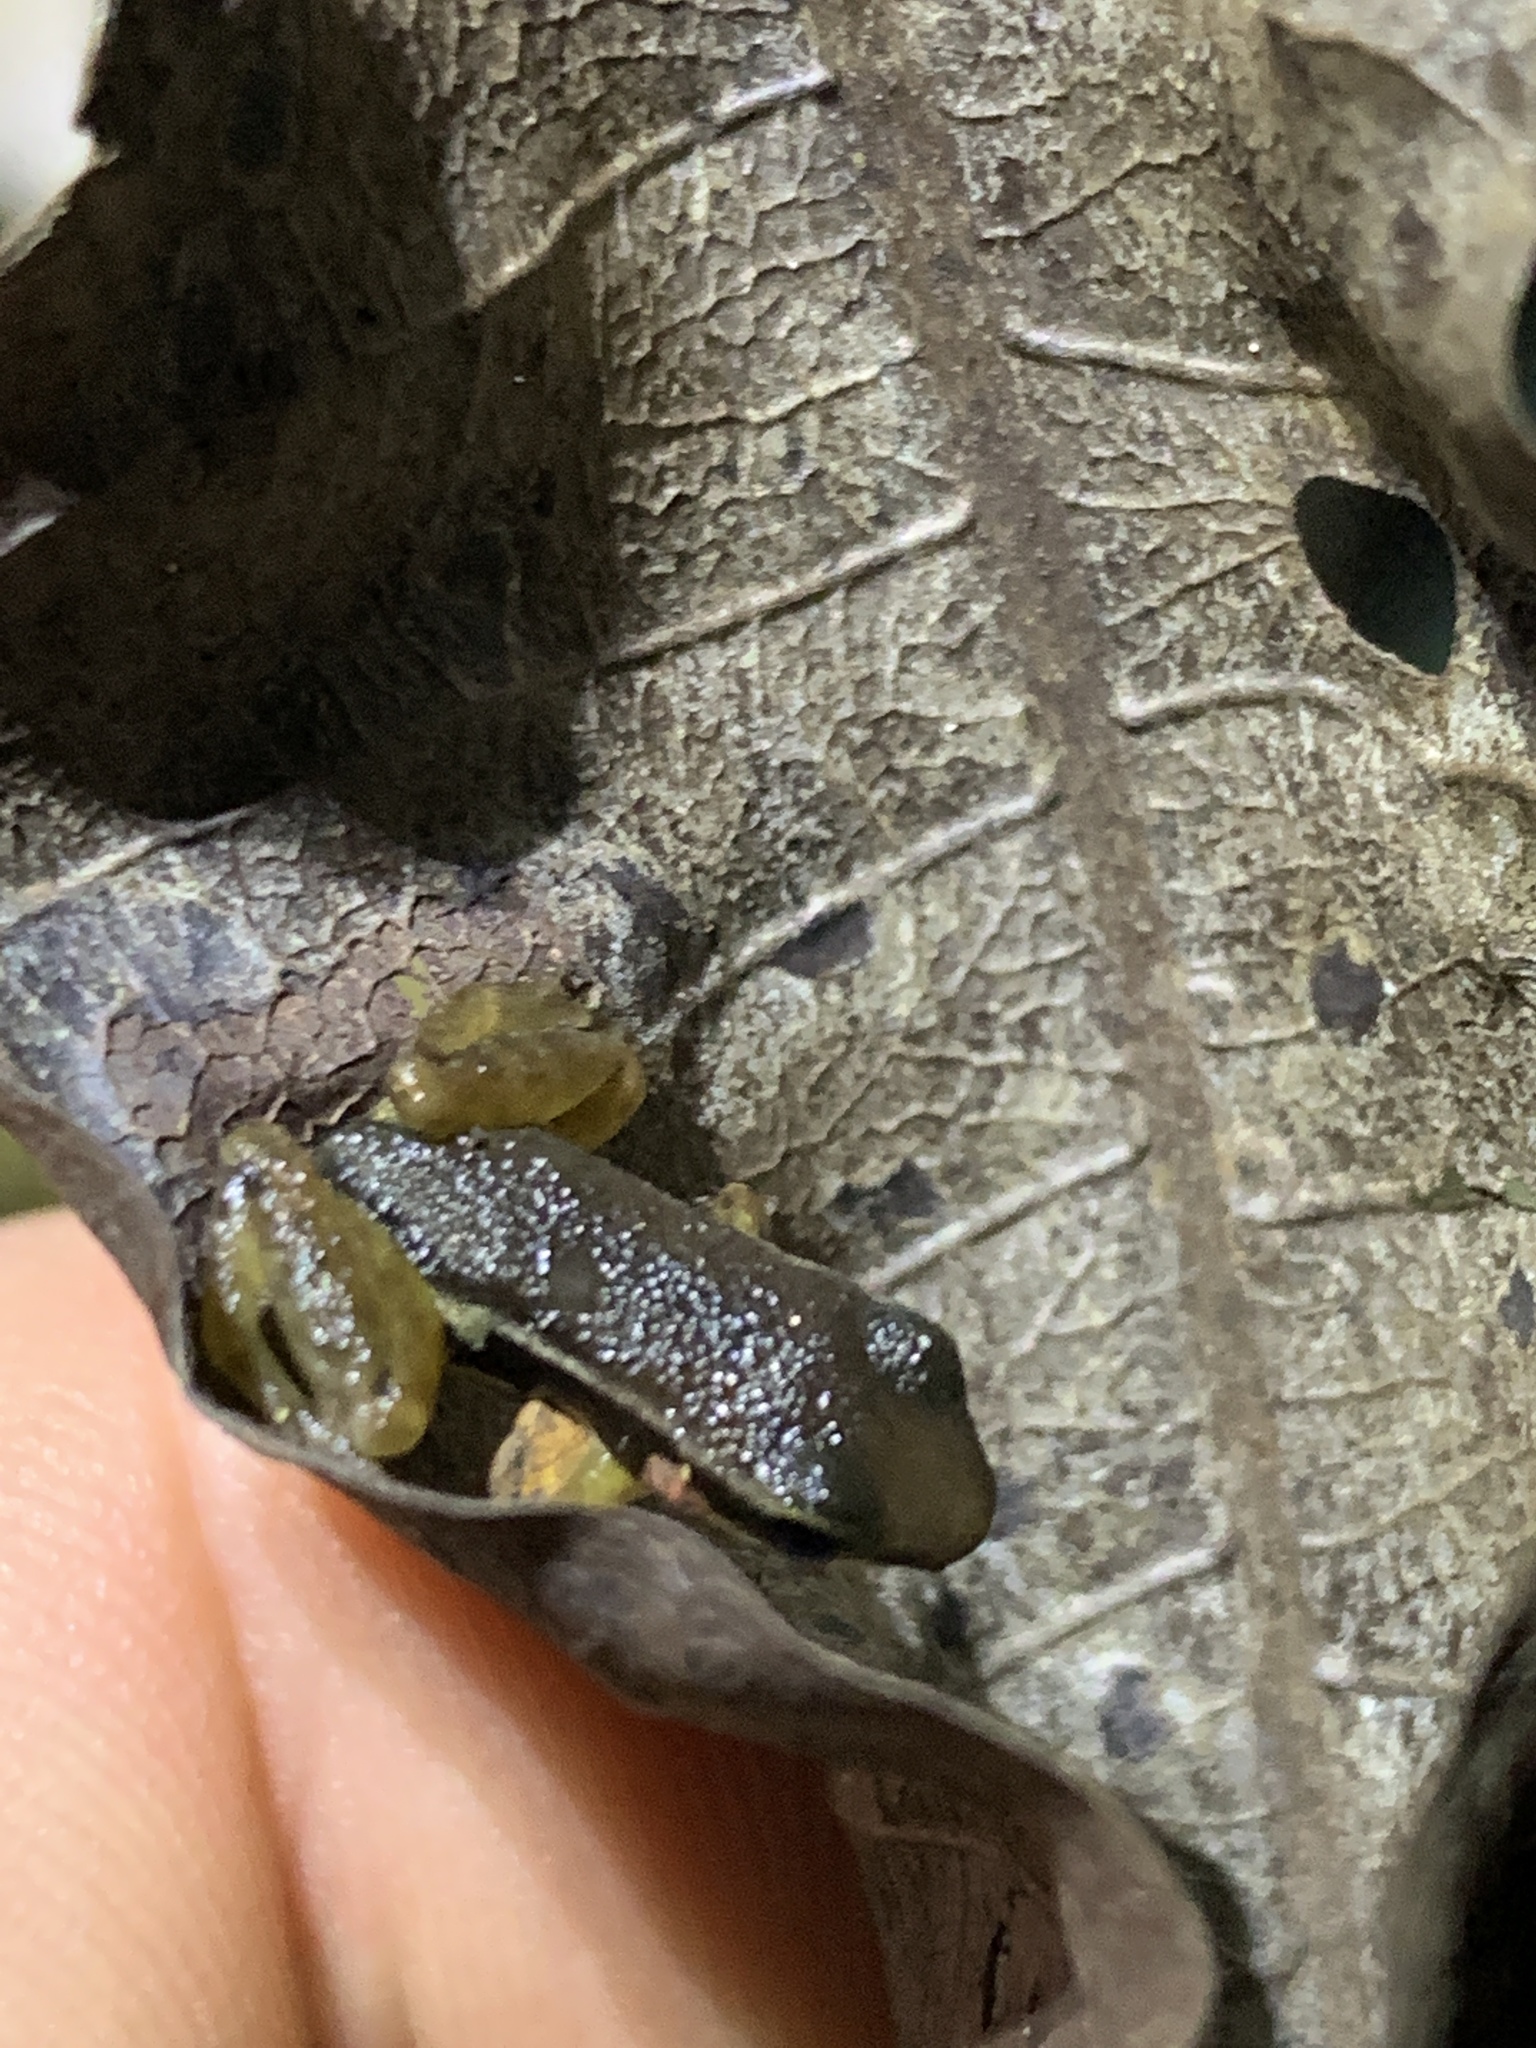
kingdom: Animalia
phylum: Chordata
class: Amphibia
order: Anura
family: Dendrobatidae
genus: Silverstoneia
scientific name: Silverstoneia flotator
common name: Rainforest rocket frog
